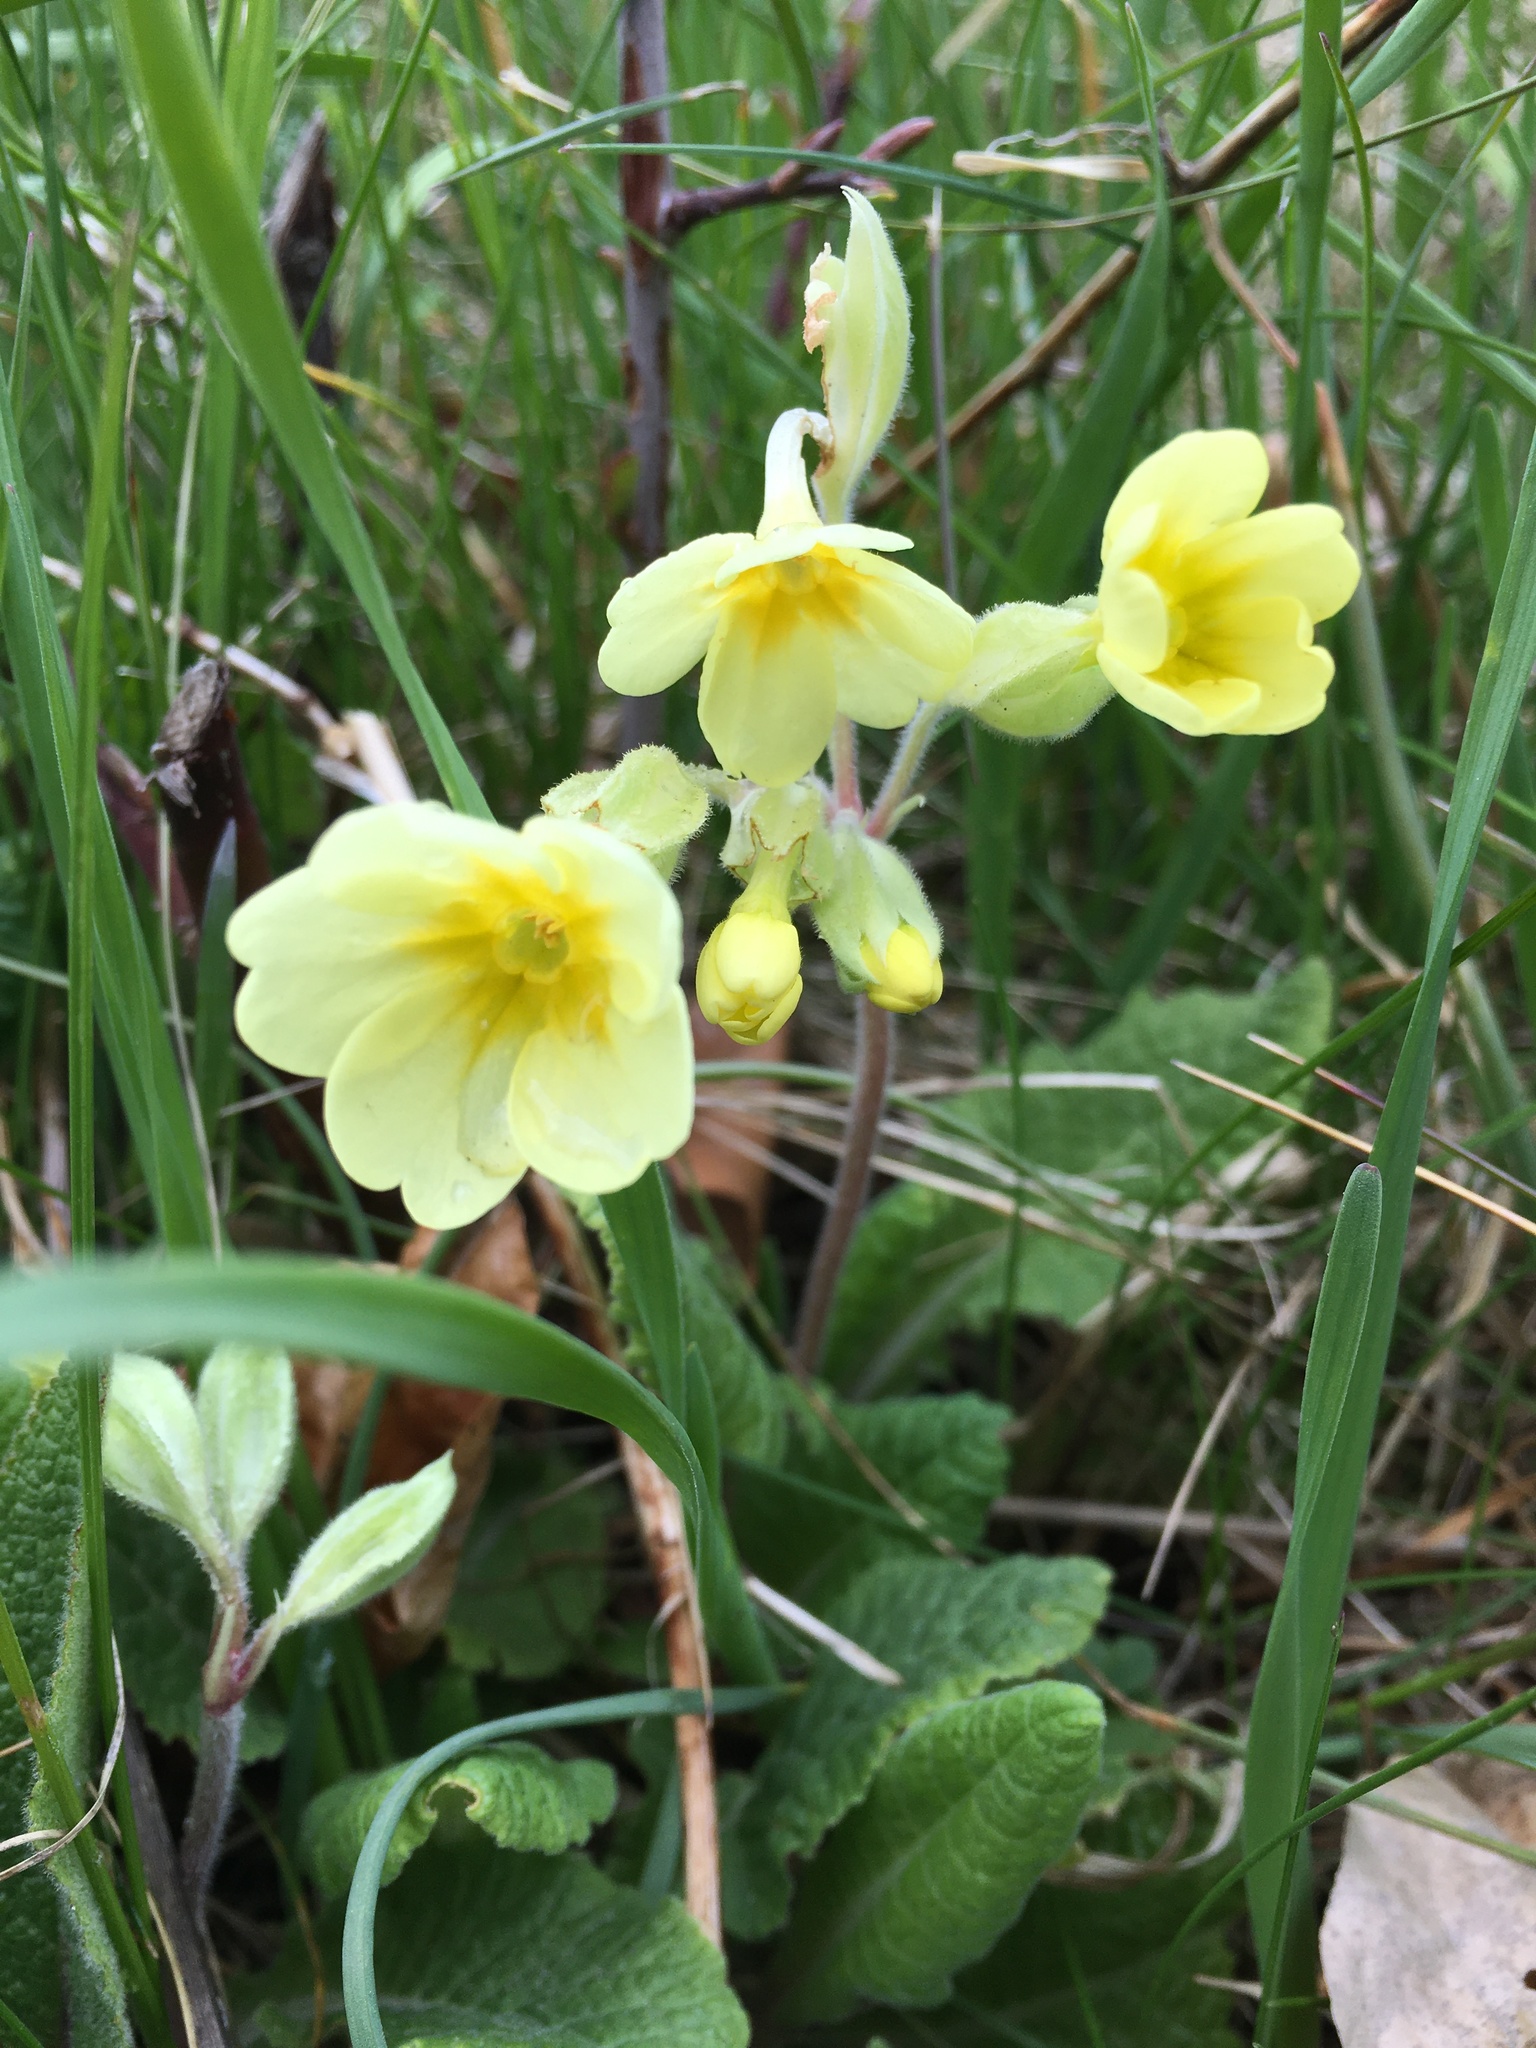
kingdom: Plantae
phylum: Tracheophyta
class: Magnoliopsida
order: Ericales
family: Primulaceae
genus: Primula
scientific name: Primula elatior
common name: Oxlip
